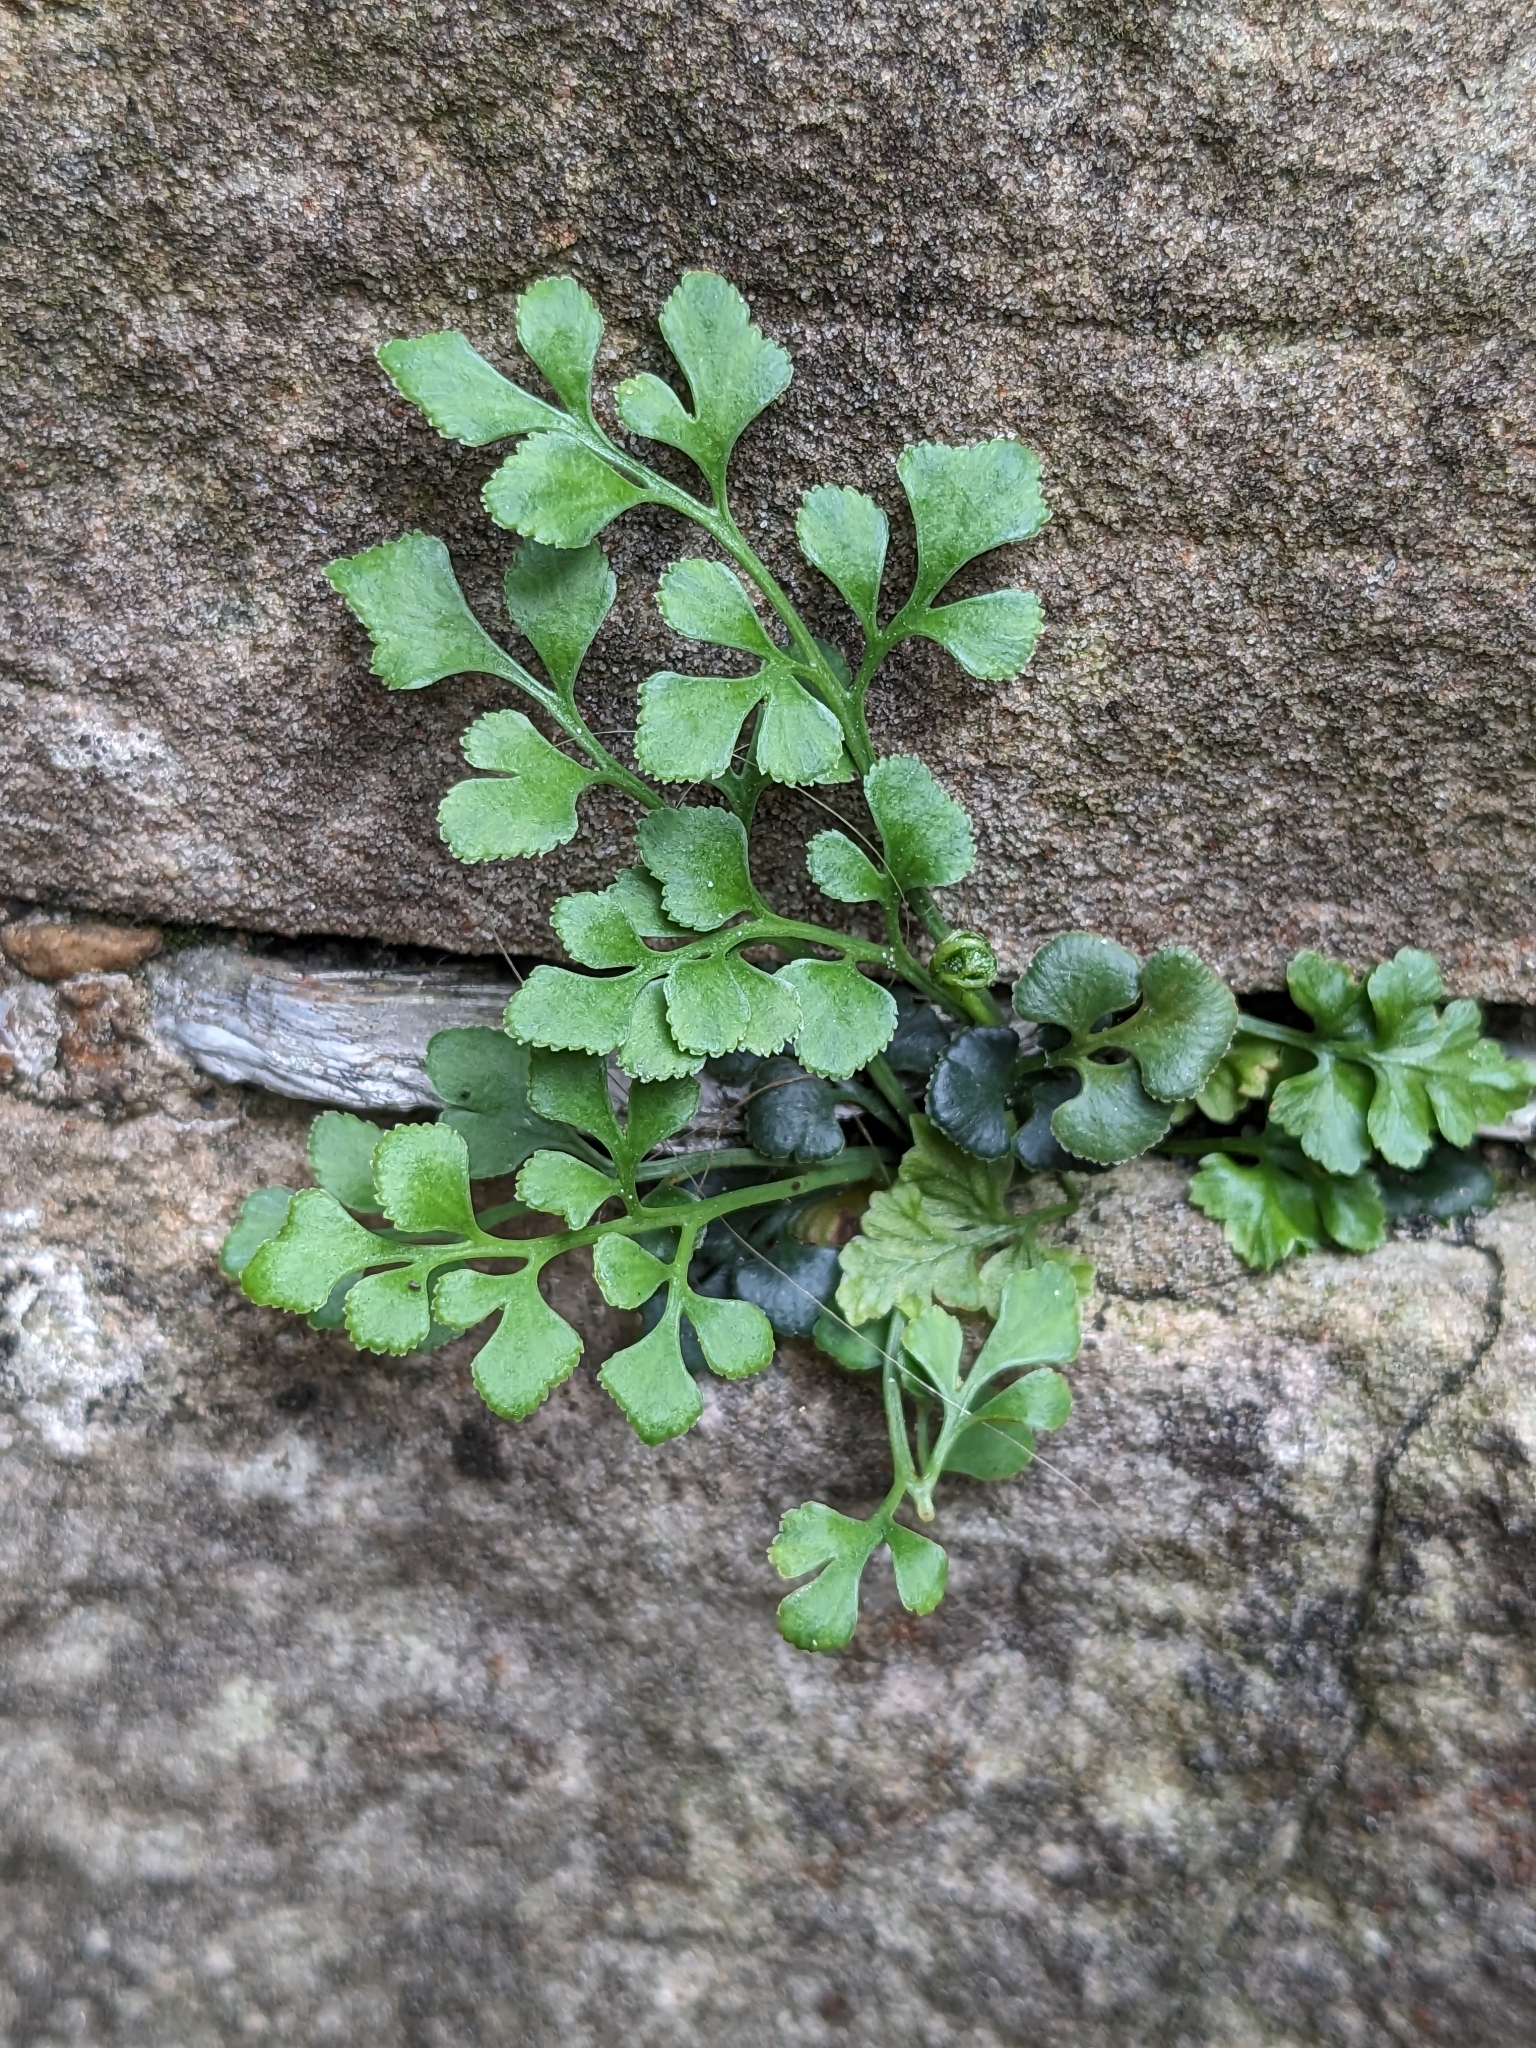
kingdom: Plantae
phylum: Tracheophyta
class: Polypodiopsida
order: Polypodiales
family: Aspleniaceae
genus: Asplenium
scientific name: Asplenium ruta-muraria
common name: Wall-rue
